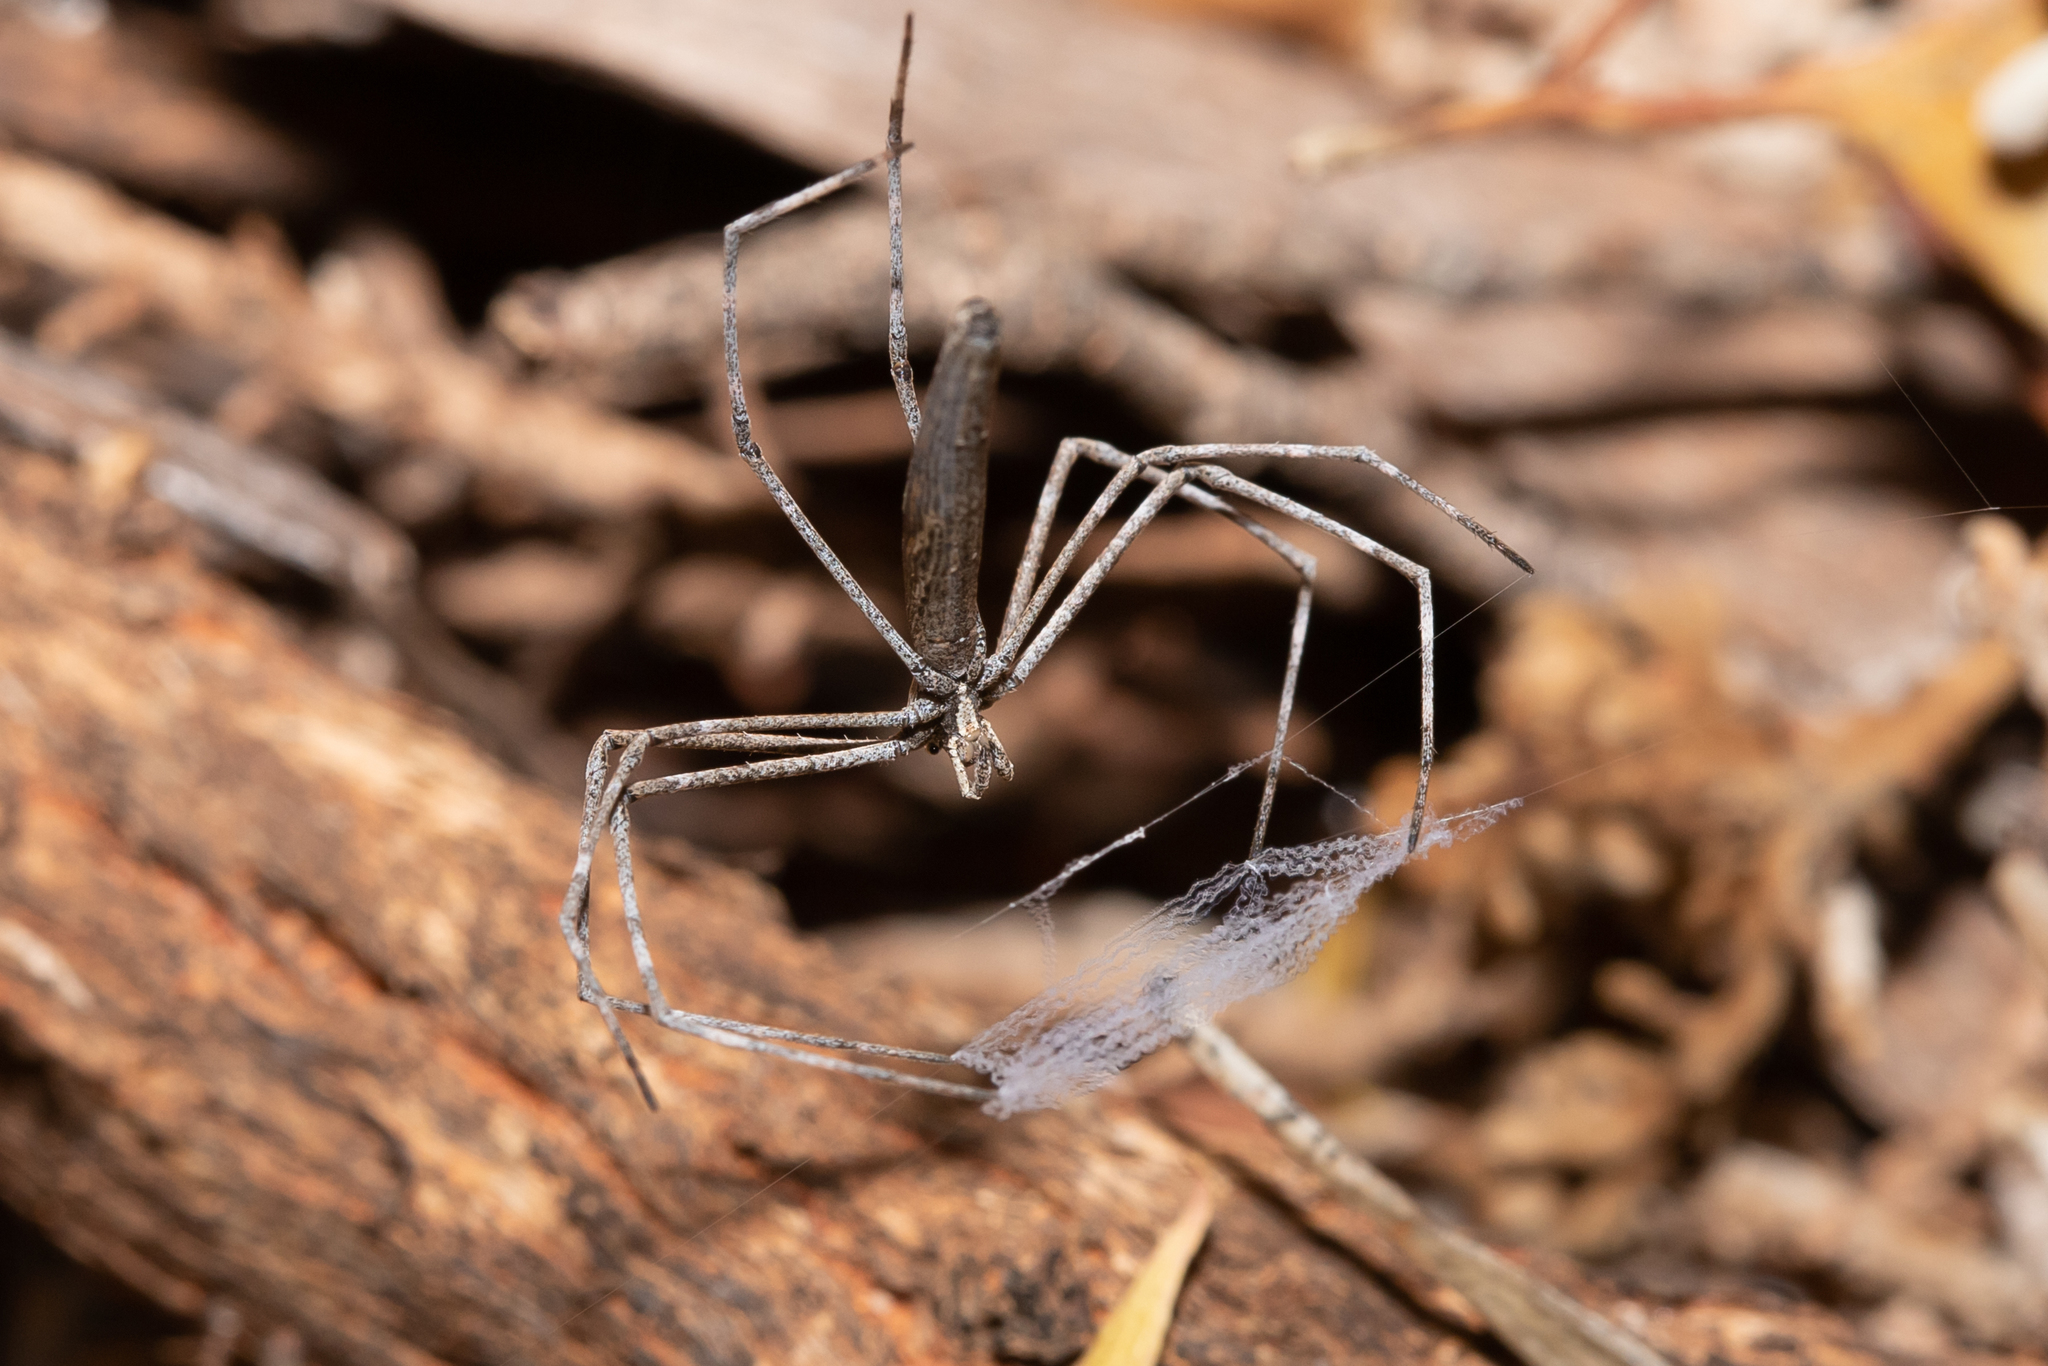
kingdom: Animalia
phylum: Arthropoda
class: Arachnida
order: Araneae
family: Deinopidae
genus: Deinopis
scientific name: Deinopis subrufa
